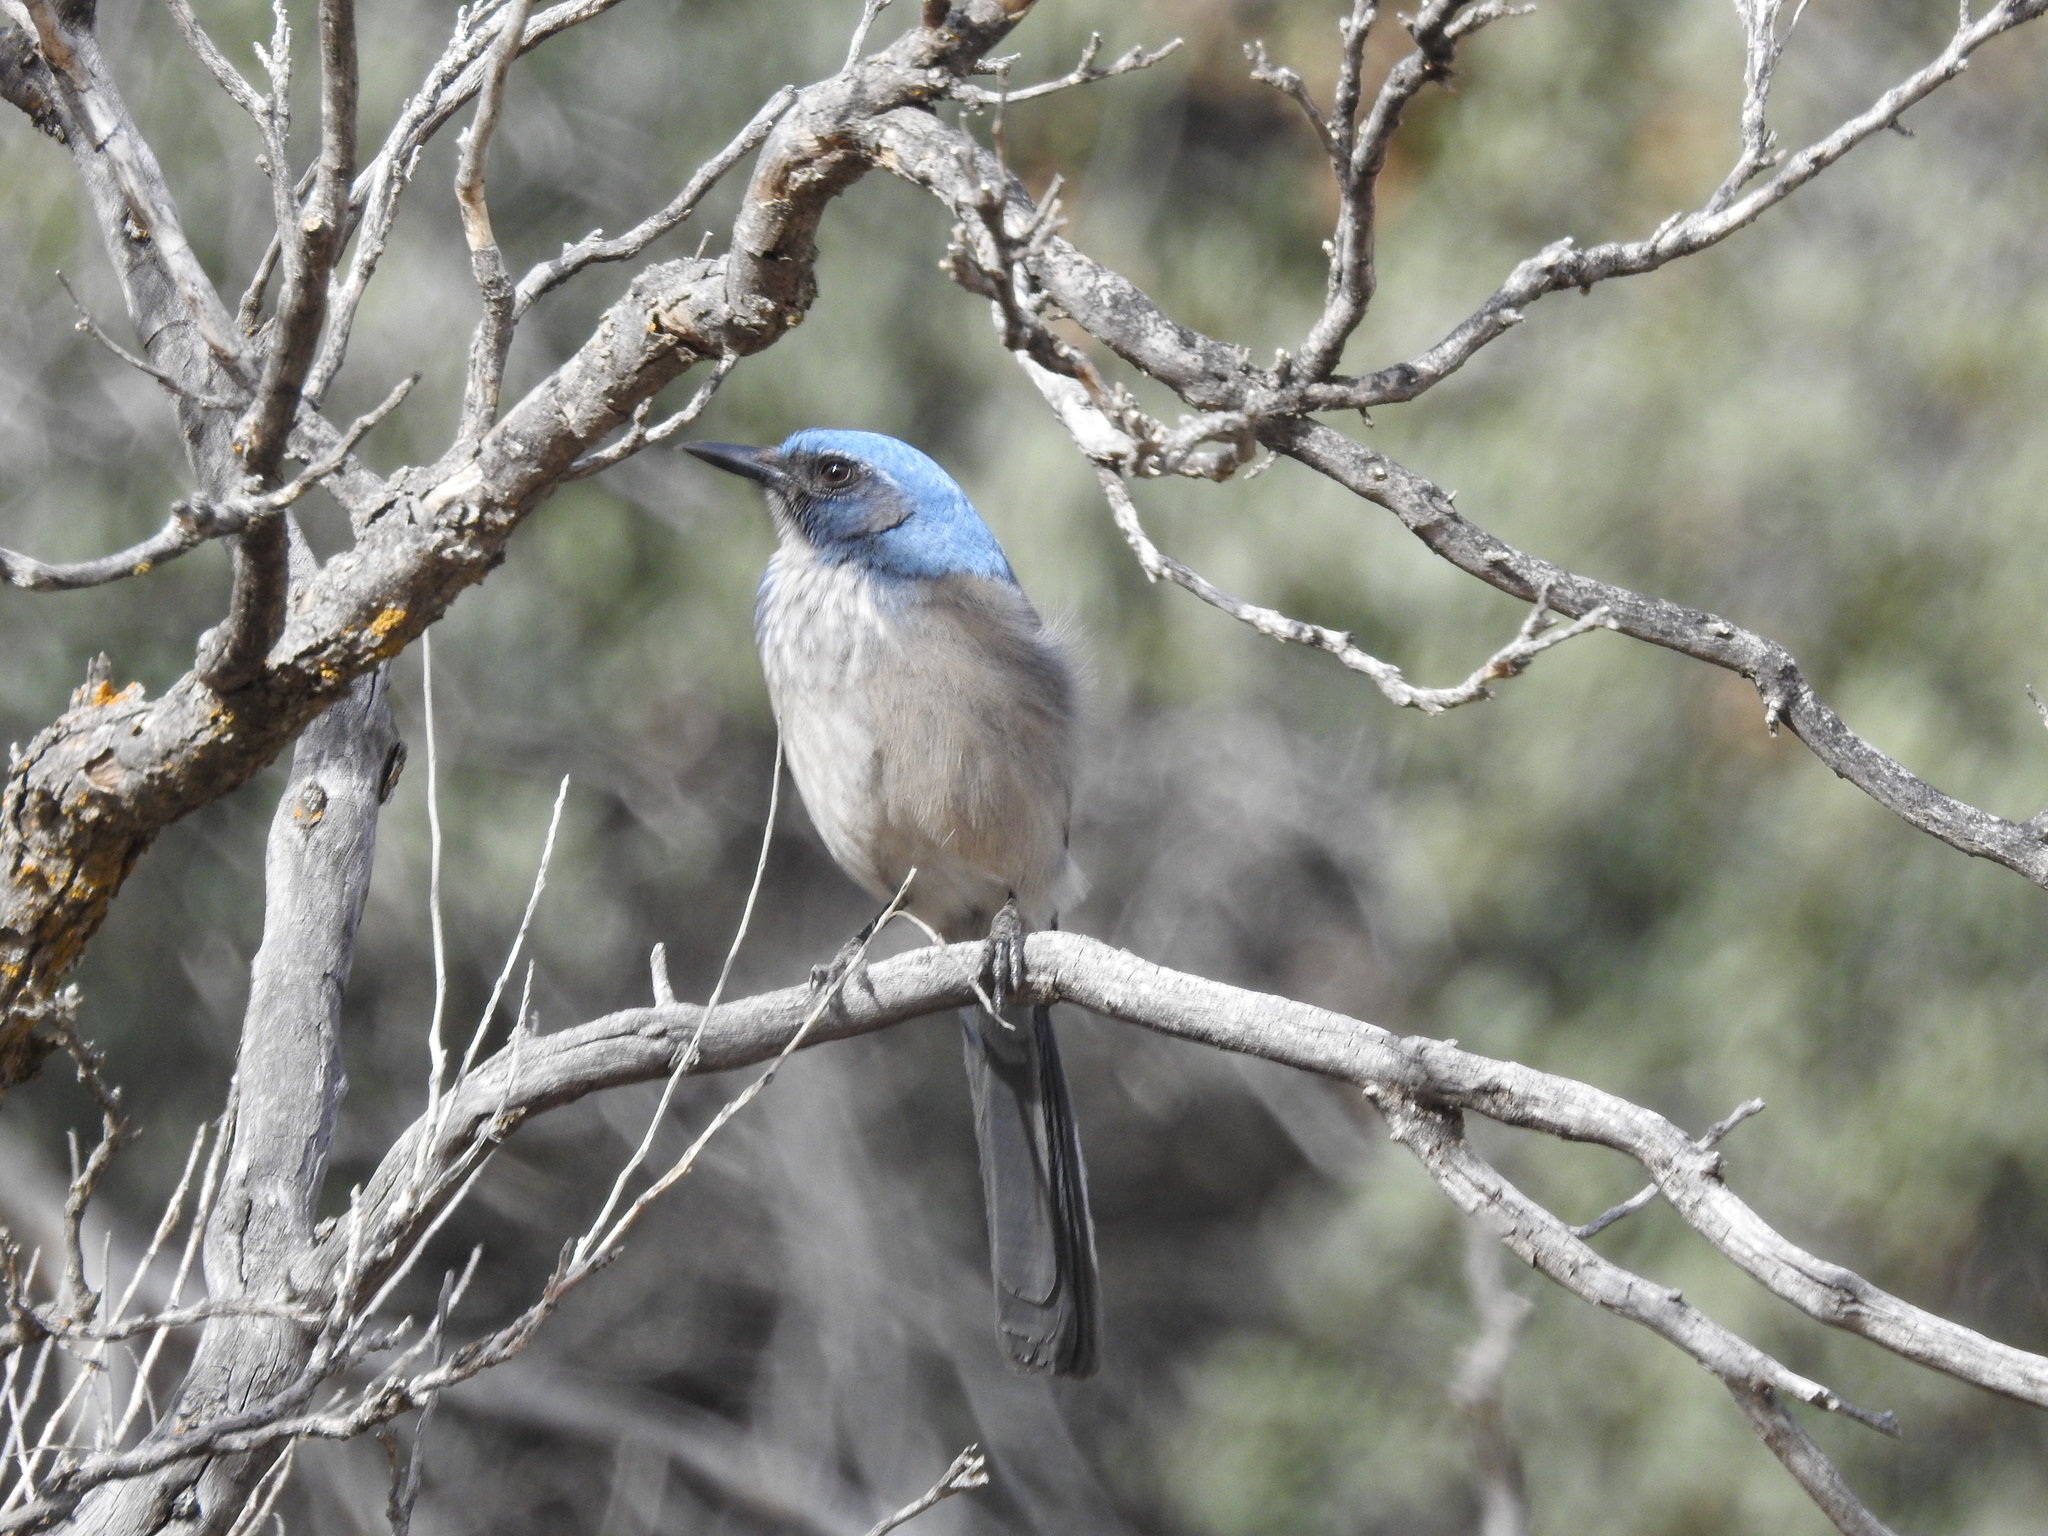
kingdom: Animalia
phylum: Chordata
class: Aves
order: Passeriformes
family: Corvidae
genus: Aphelocoma
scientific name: Aphelocoma woodhouseii
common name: Woodhouse's scrub-jay
